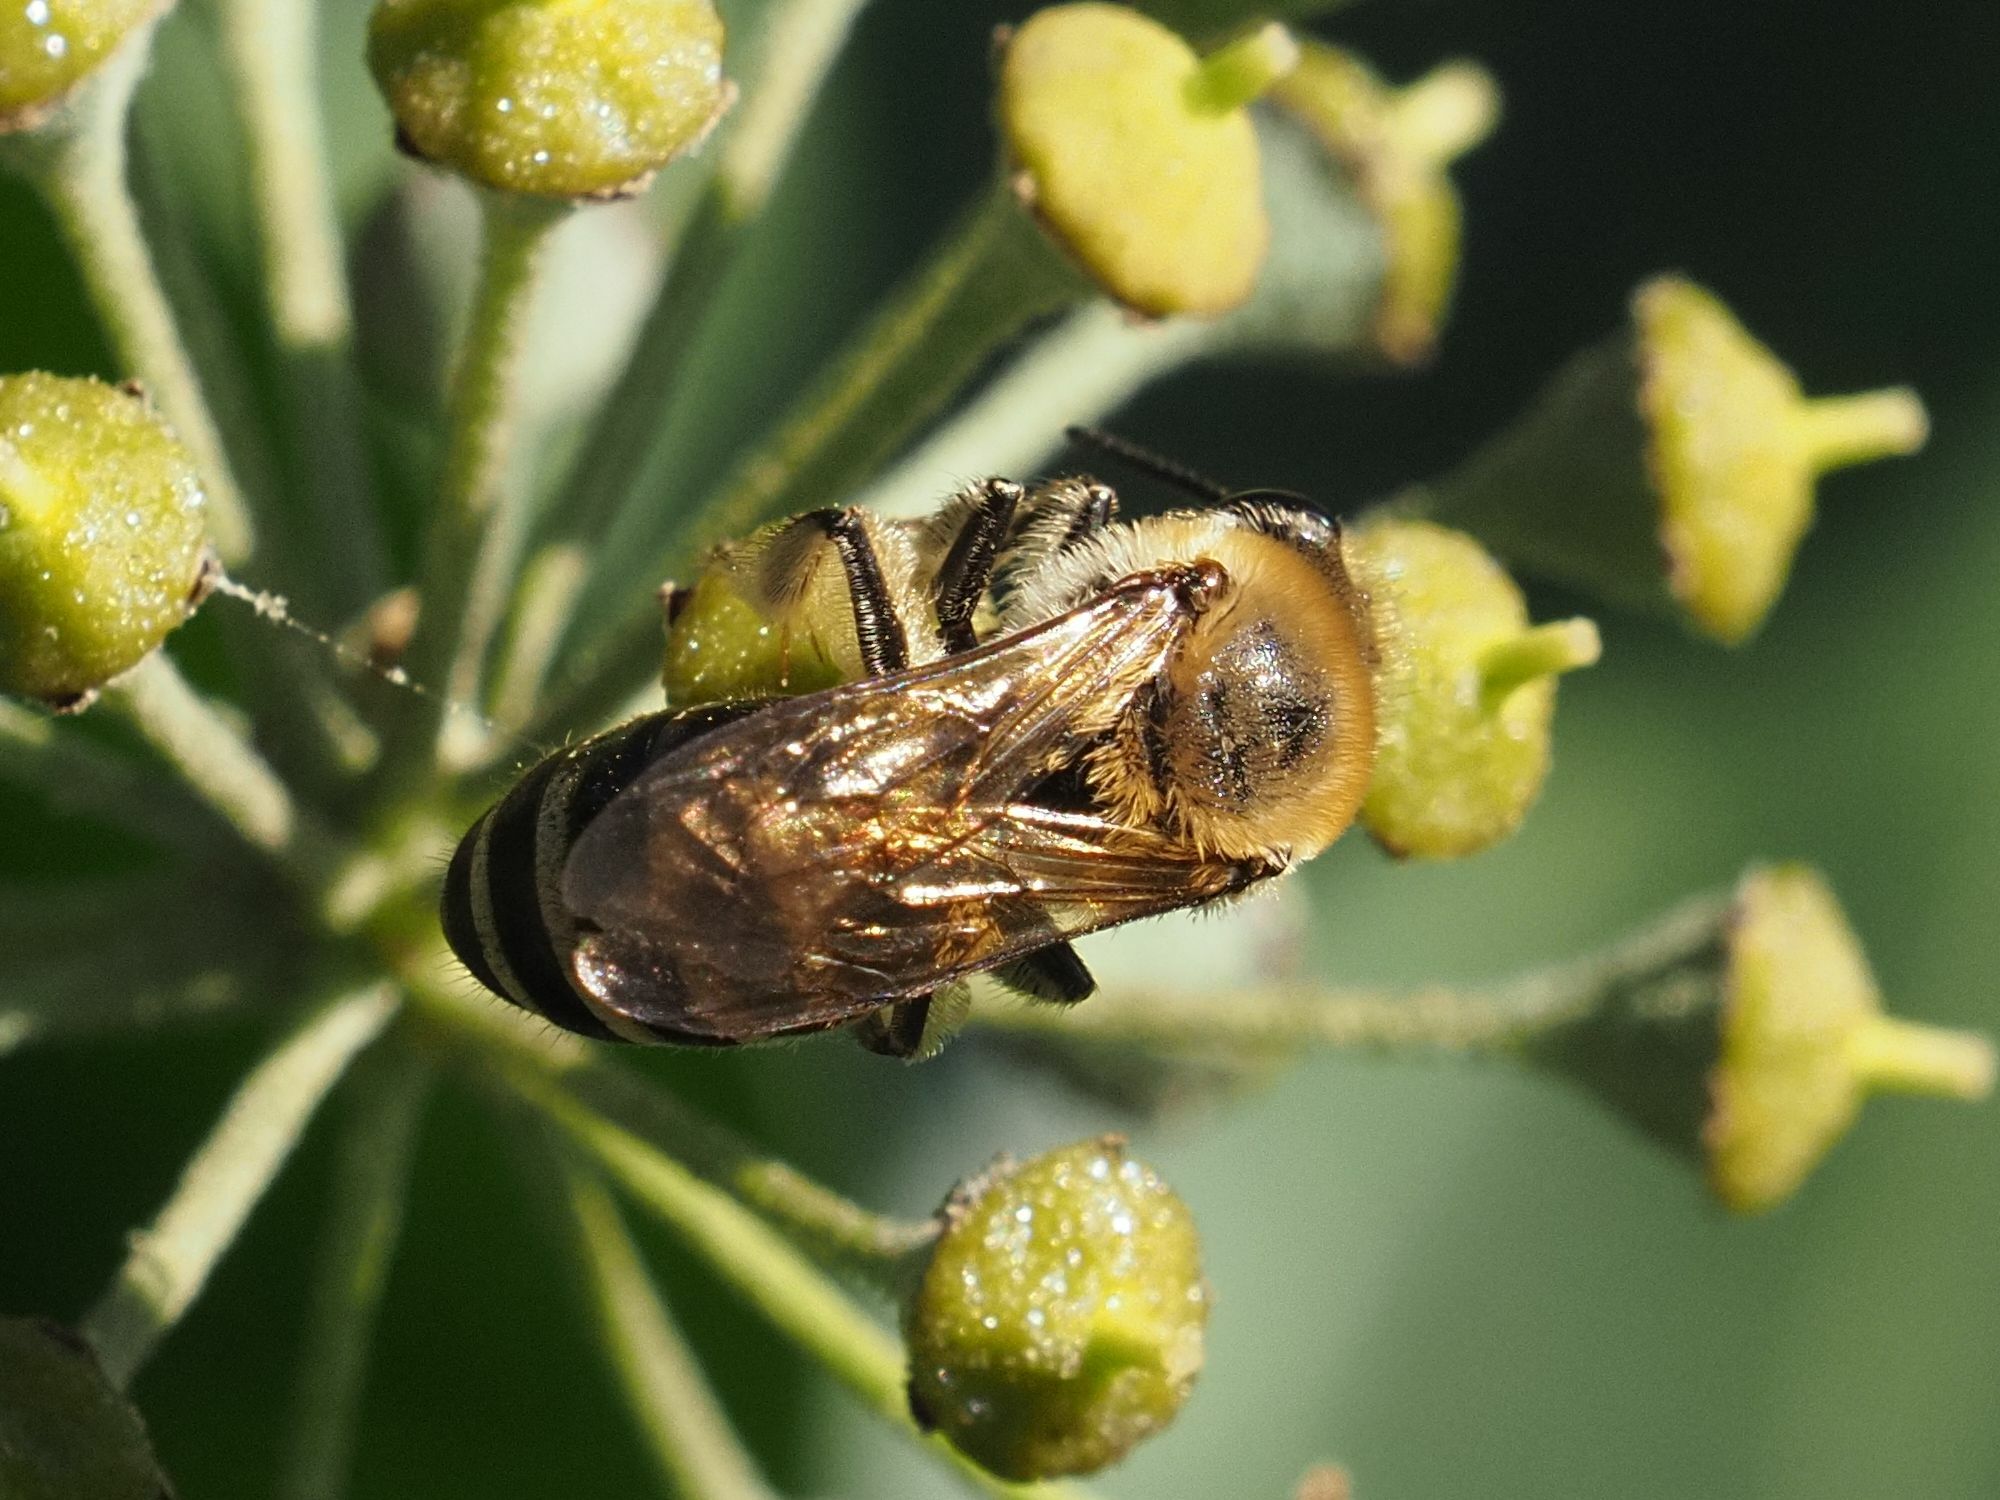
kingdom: Animalia
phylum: Arthropoda
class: Insecta
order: Hymenoptera
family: Colletidae
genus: Colletes
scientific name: Colletes hederae
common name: Ivy bee
